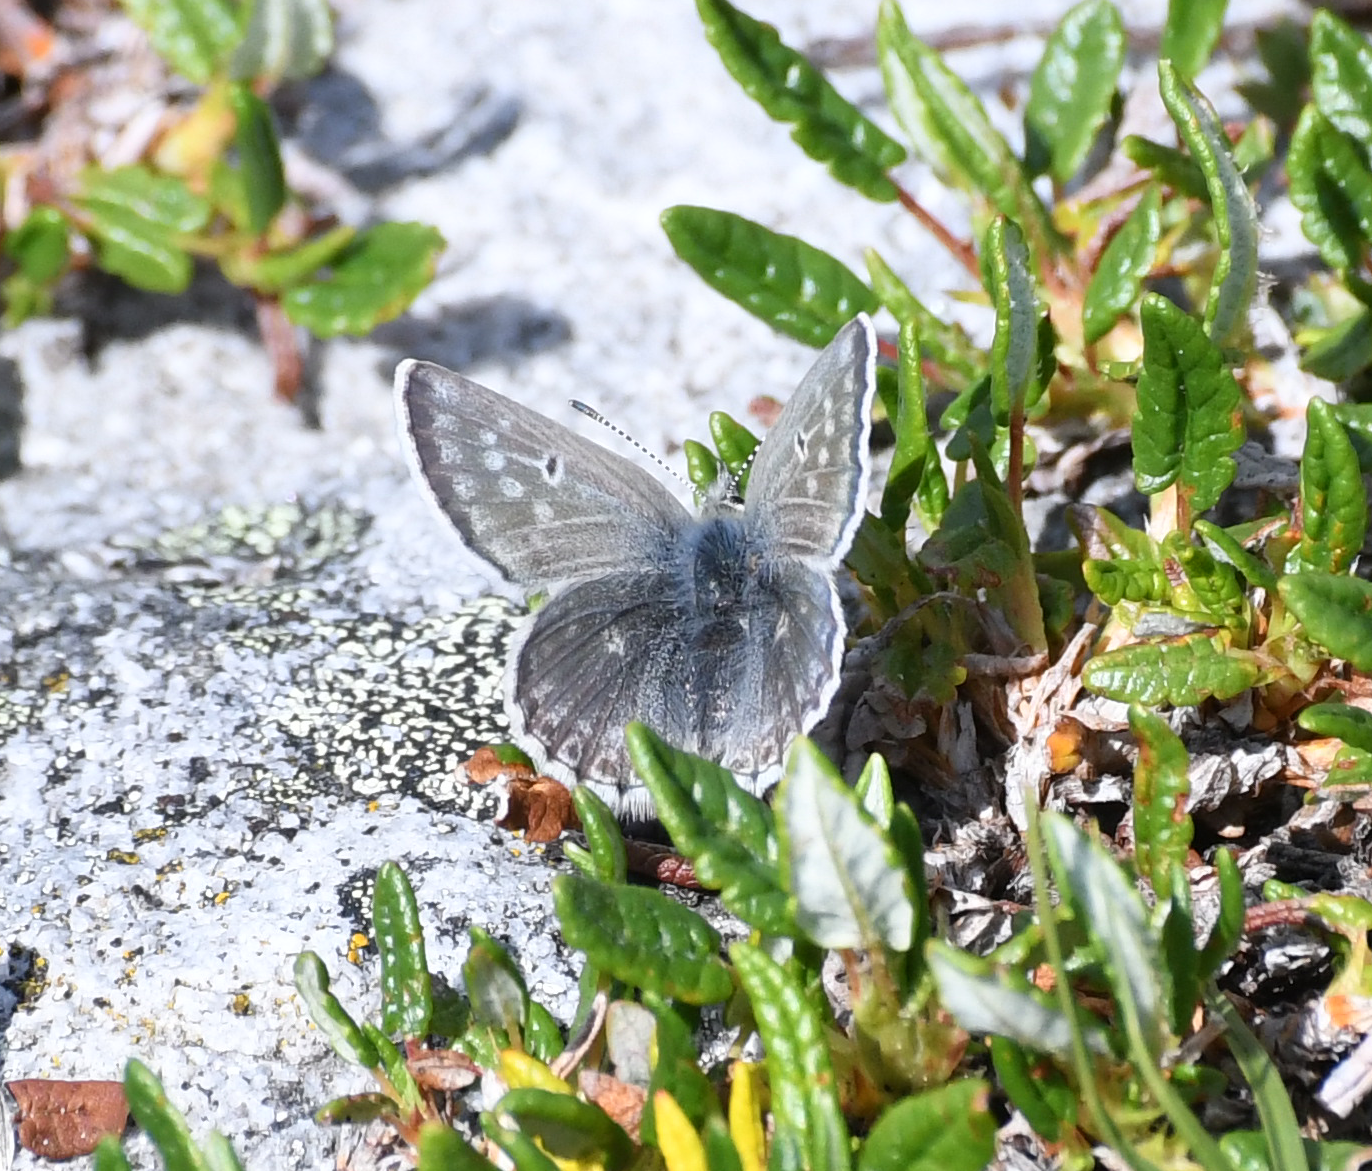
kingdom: Animalia
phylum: Arthropoda
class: Insecta
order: Lepidoptera
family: Lycaenidae
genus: Agriades
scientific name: Agriades glandon
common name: Glandon blue
